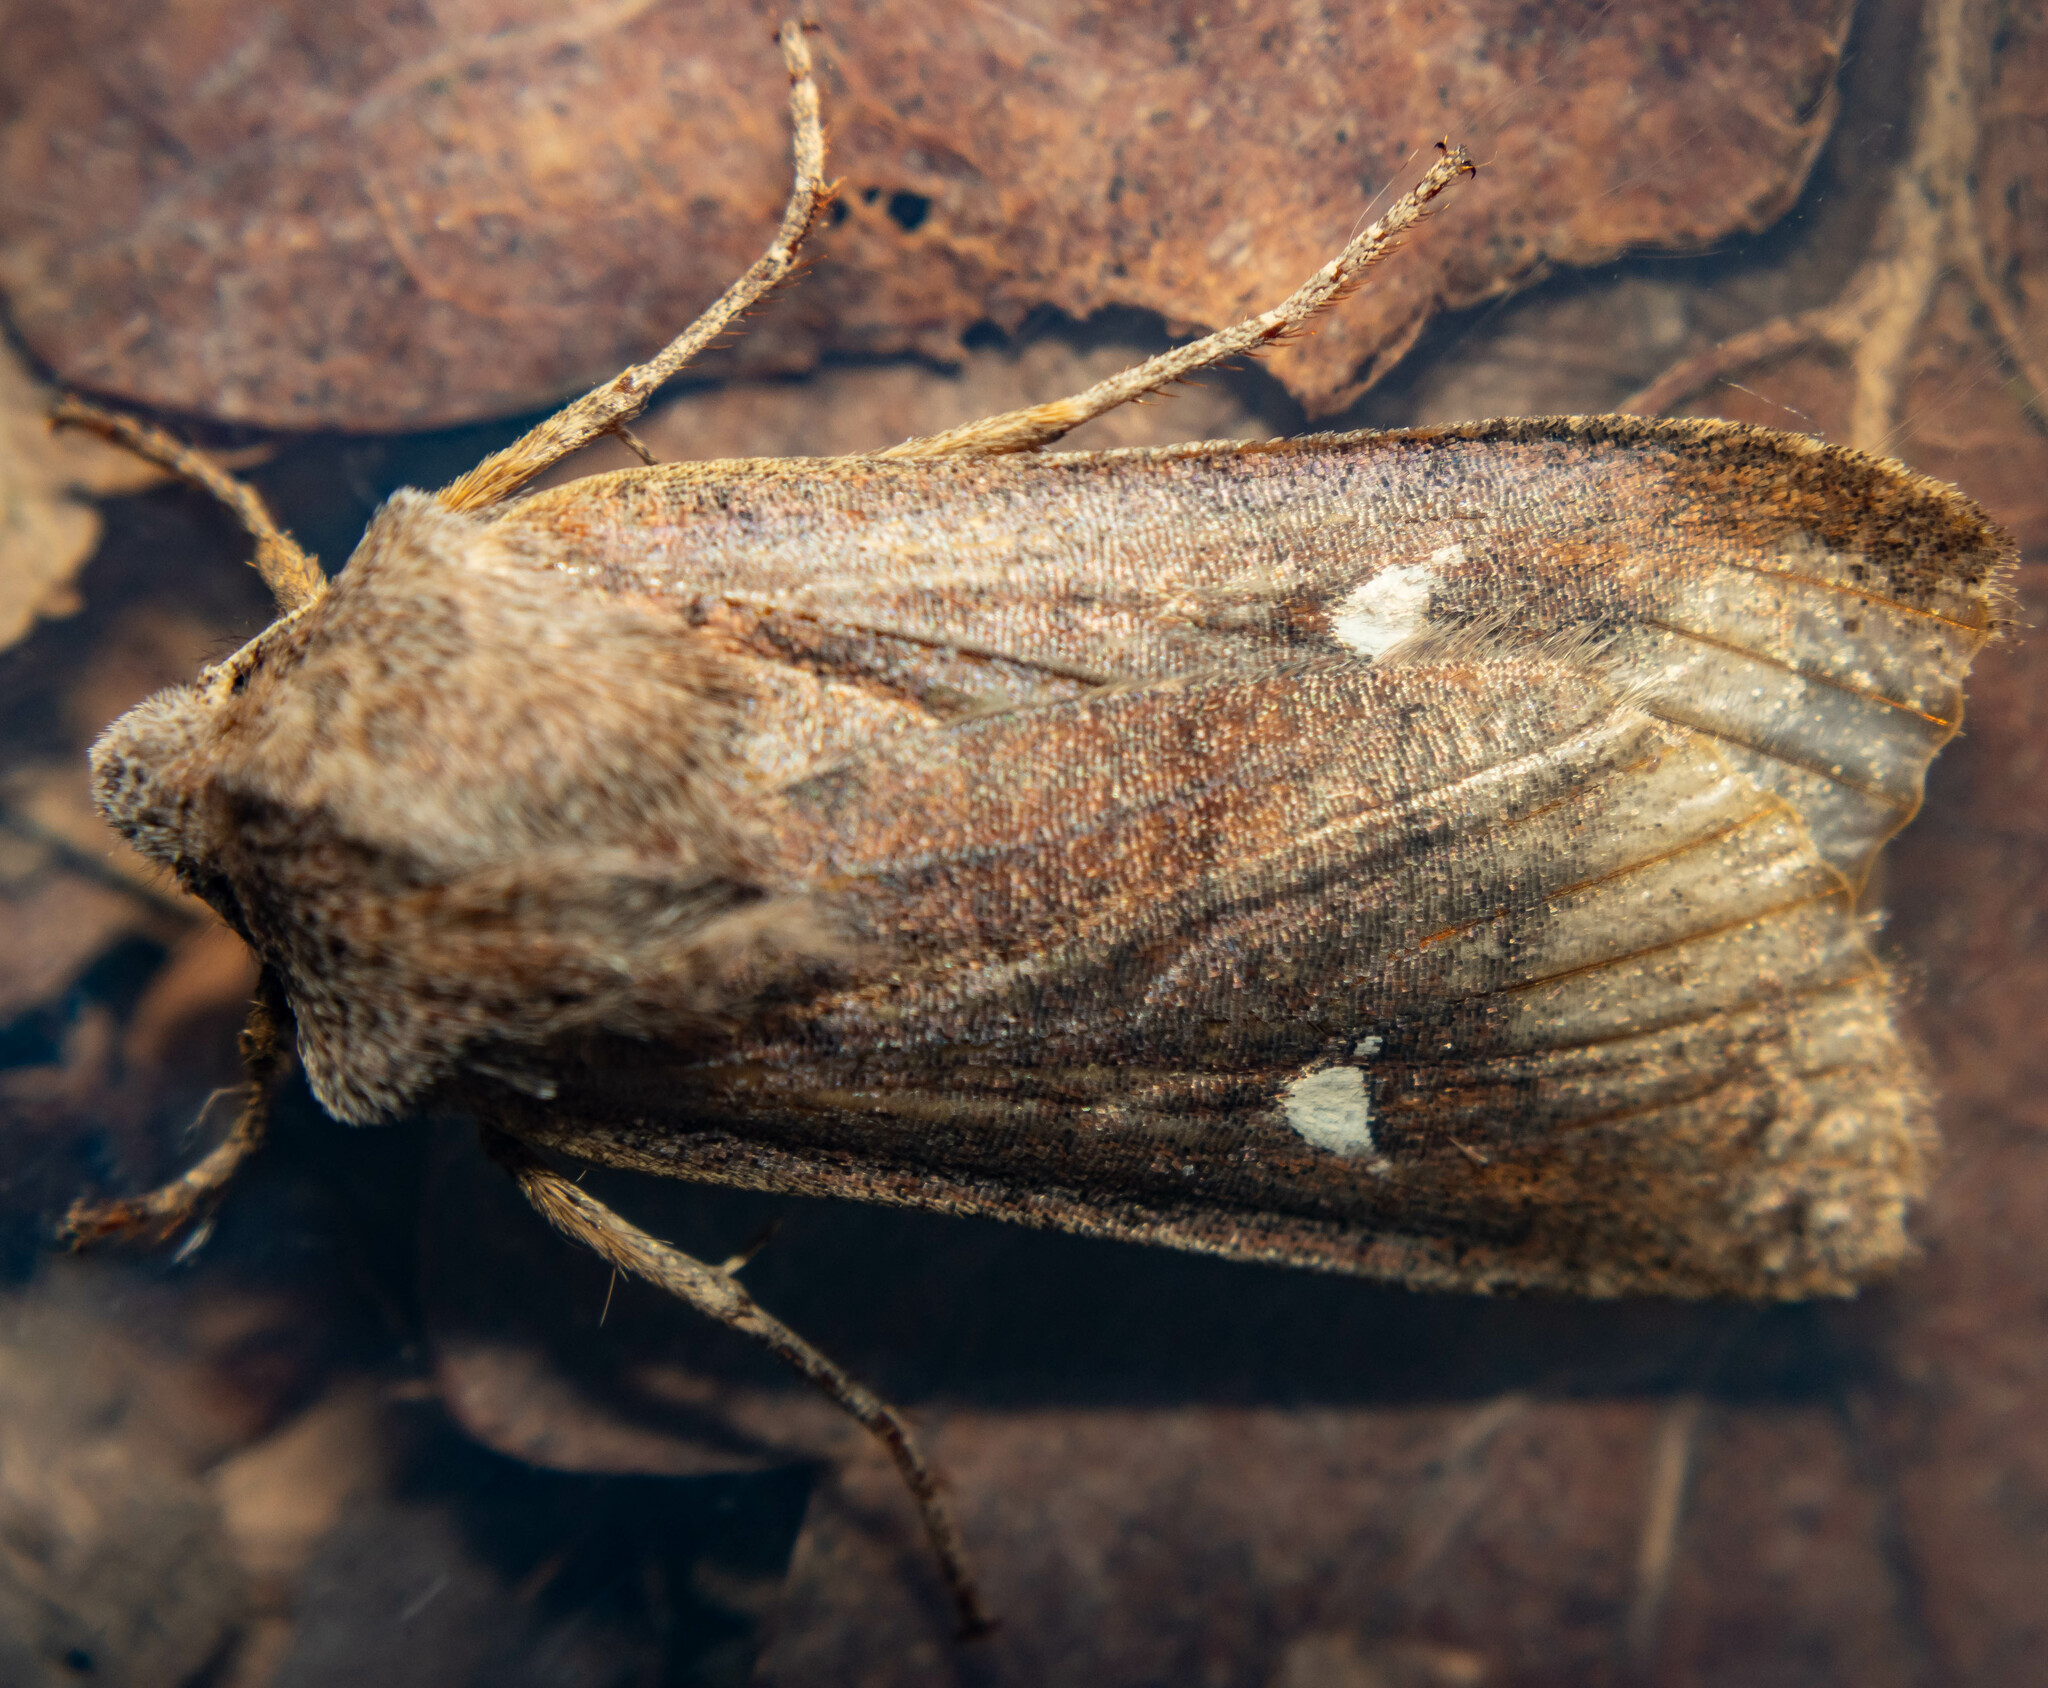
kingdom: Animalia
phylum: Arthropoda
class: Insecta
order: Lepidoptera
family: Noctuidae
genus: Eupsilia
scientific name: Eupsilia transversa
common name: Satellite
